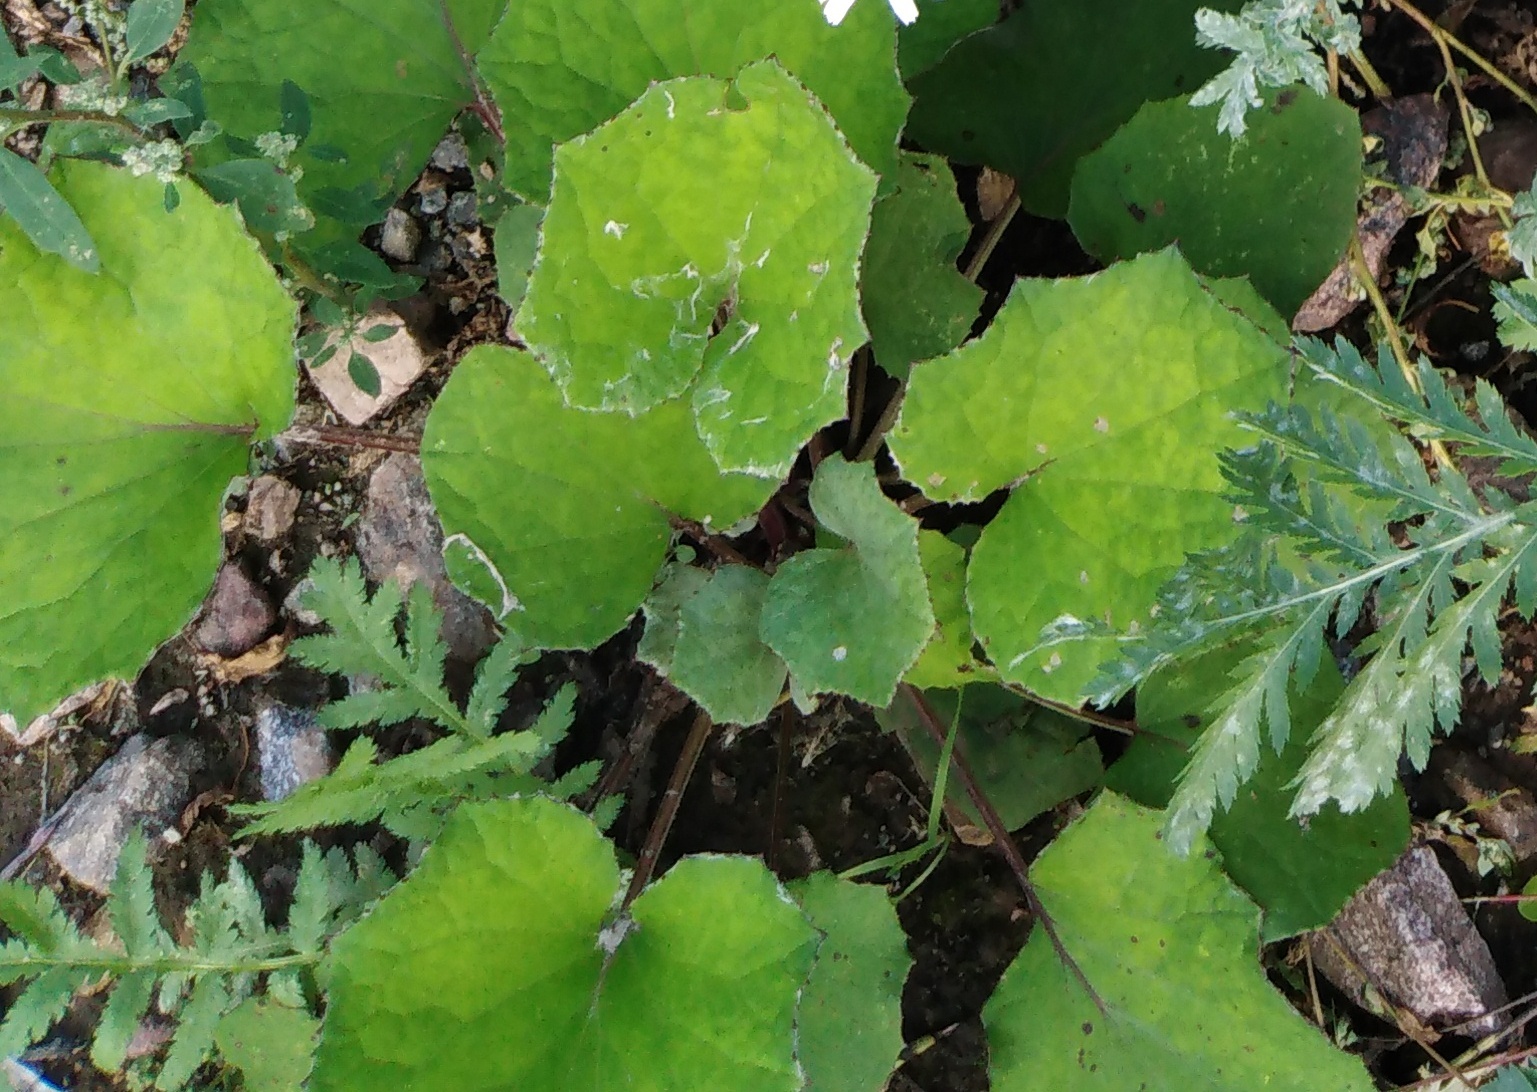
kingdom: Plantae
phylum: Tracheophyta
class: Magnoliopsida
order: Asterales
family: Asteraceae
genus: Tussilago
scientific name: Tussilago farfara
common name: Coltsfoot
